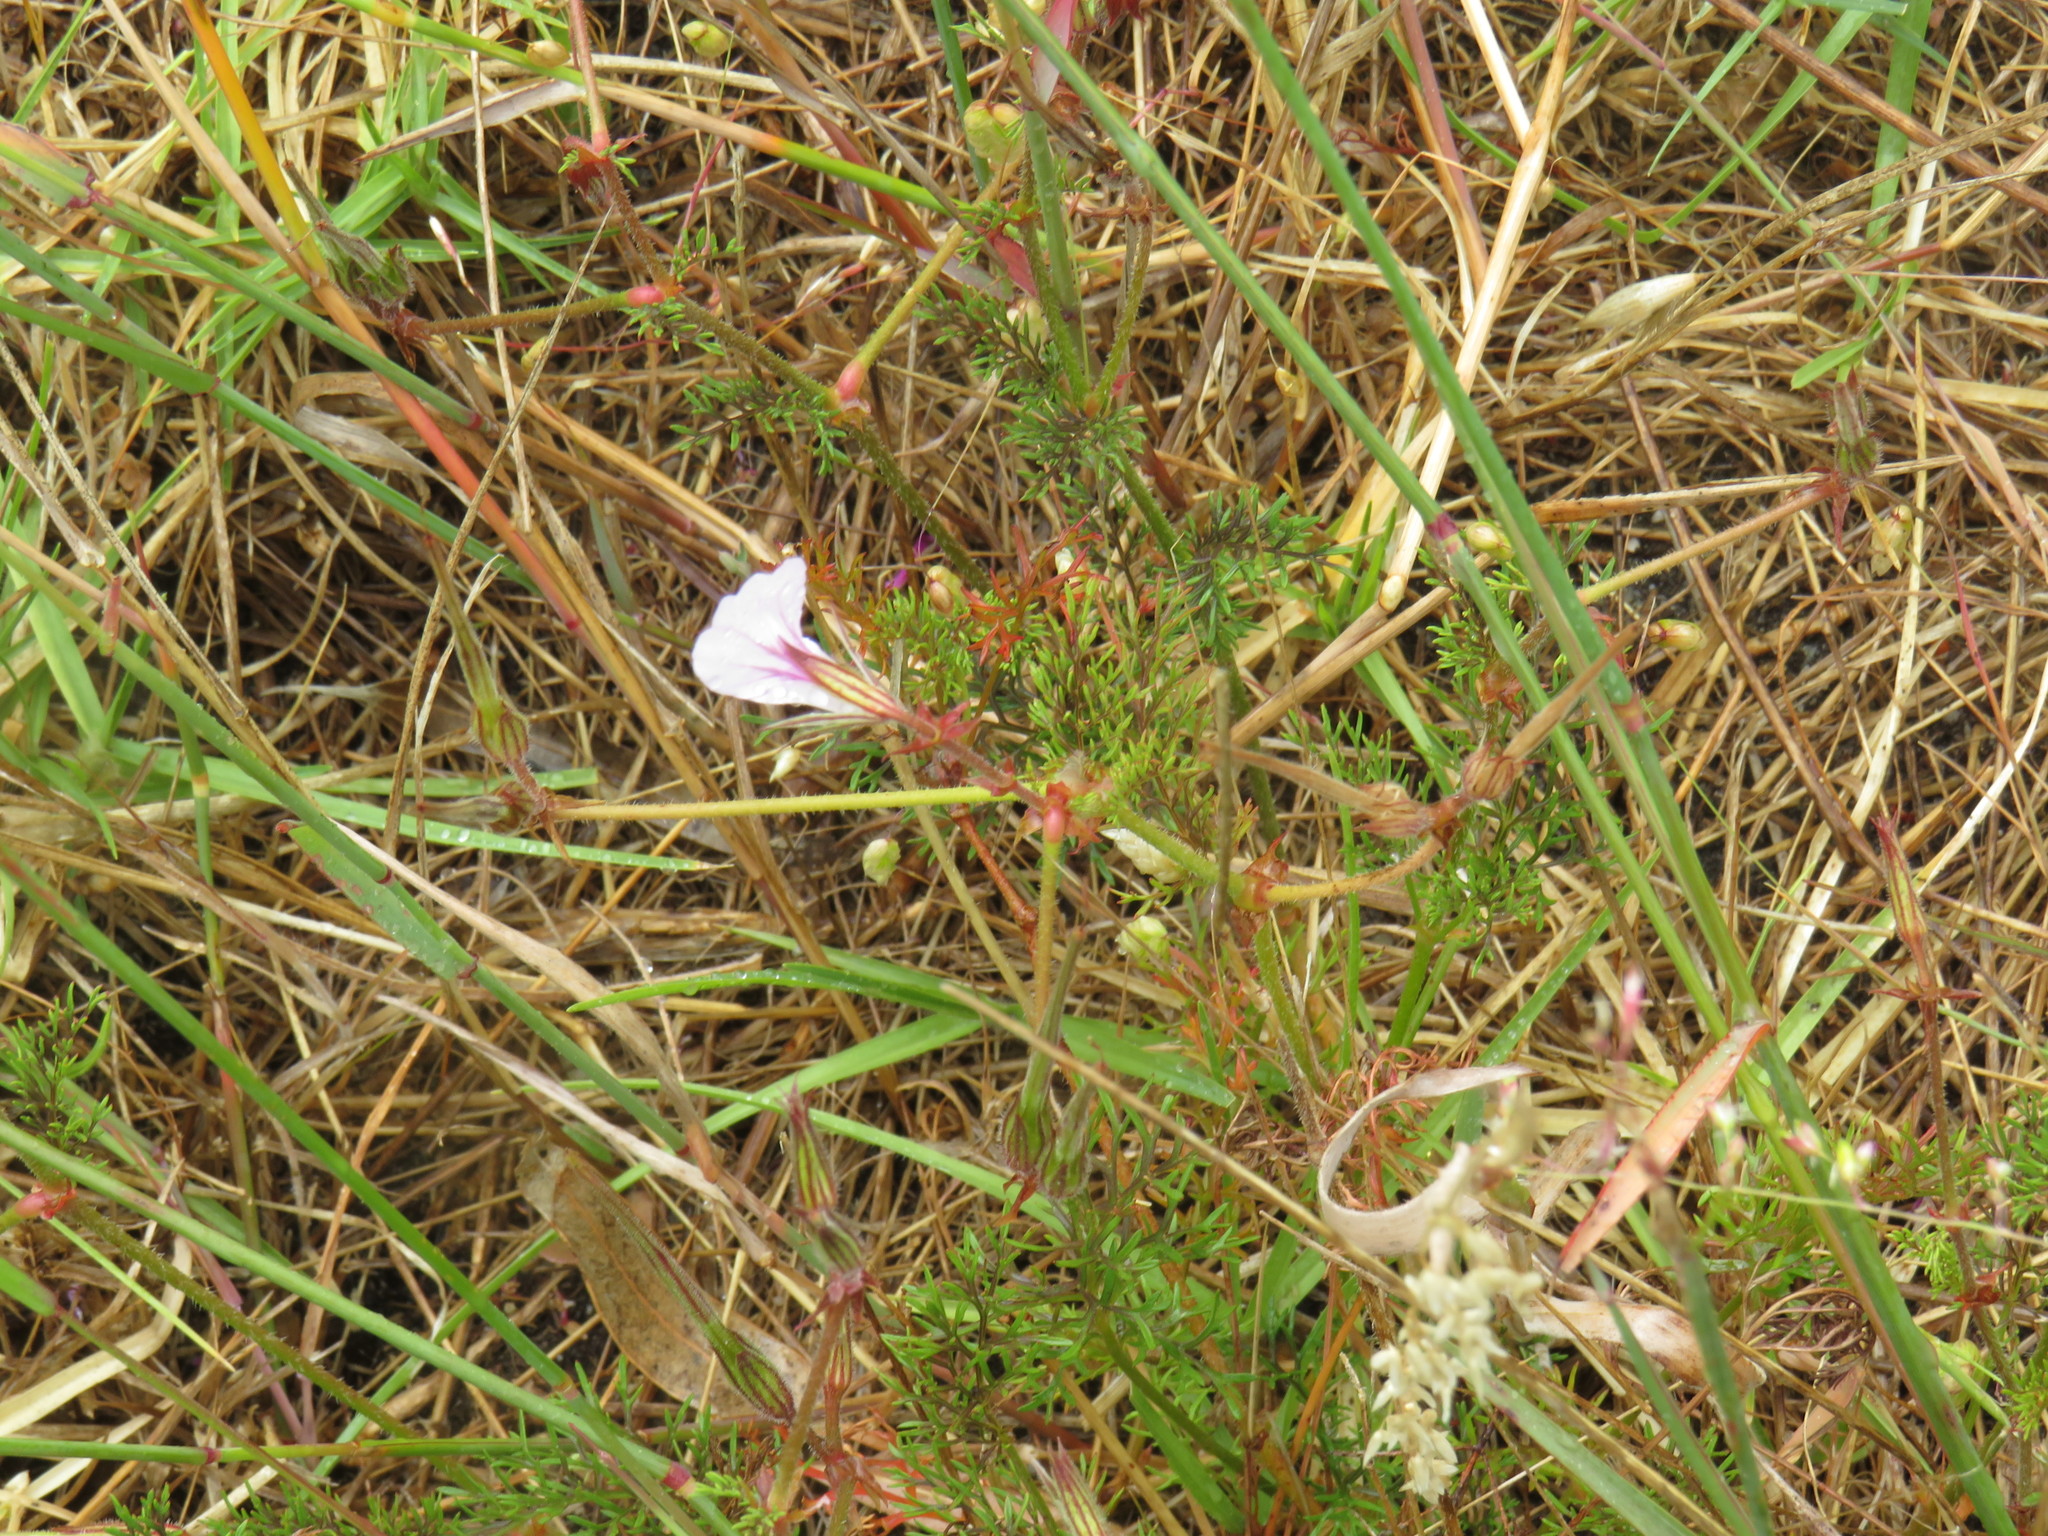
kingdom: Plantae
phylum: Tracheophyta
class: Magnoliopsida
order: Geraniales
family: Geraniaceae
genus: Pelargonium
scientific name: Pelargonium myrrhifolium
